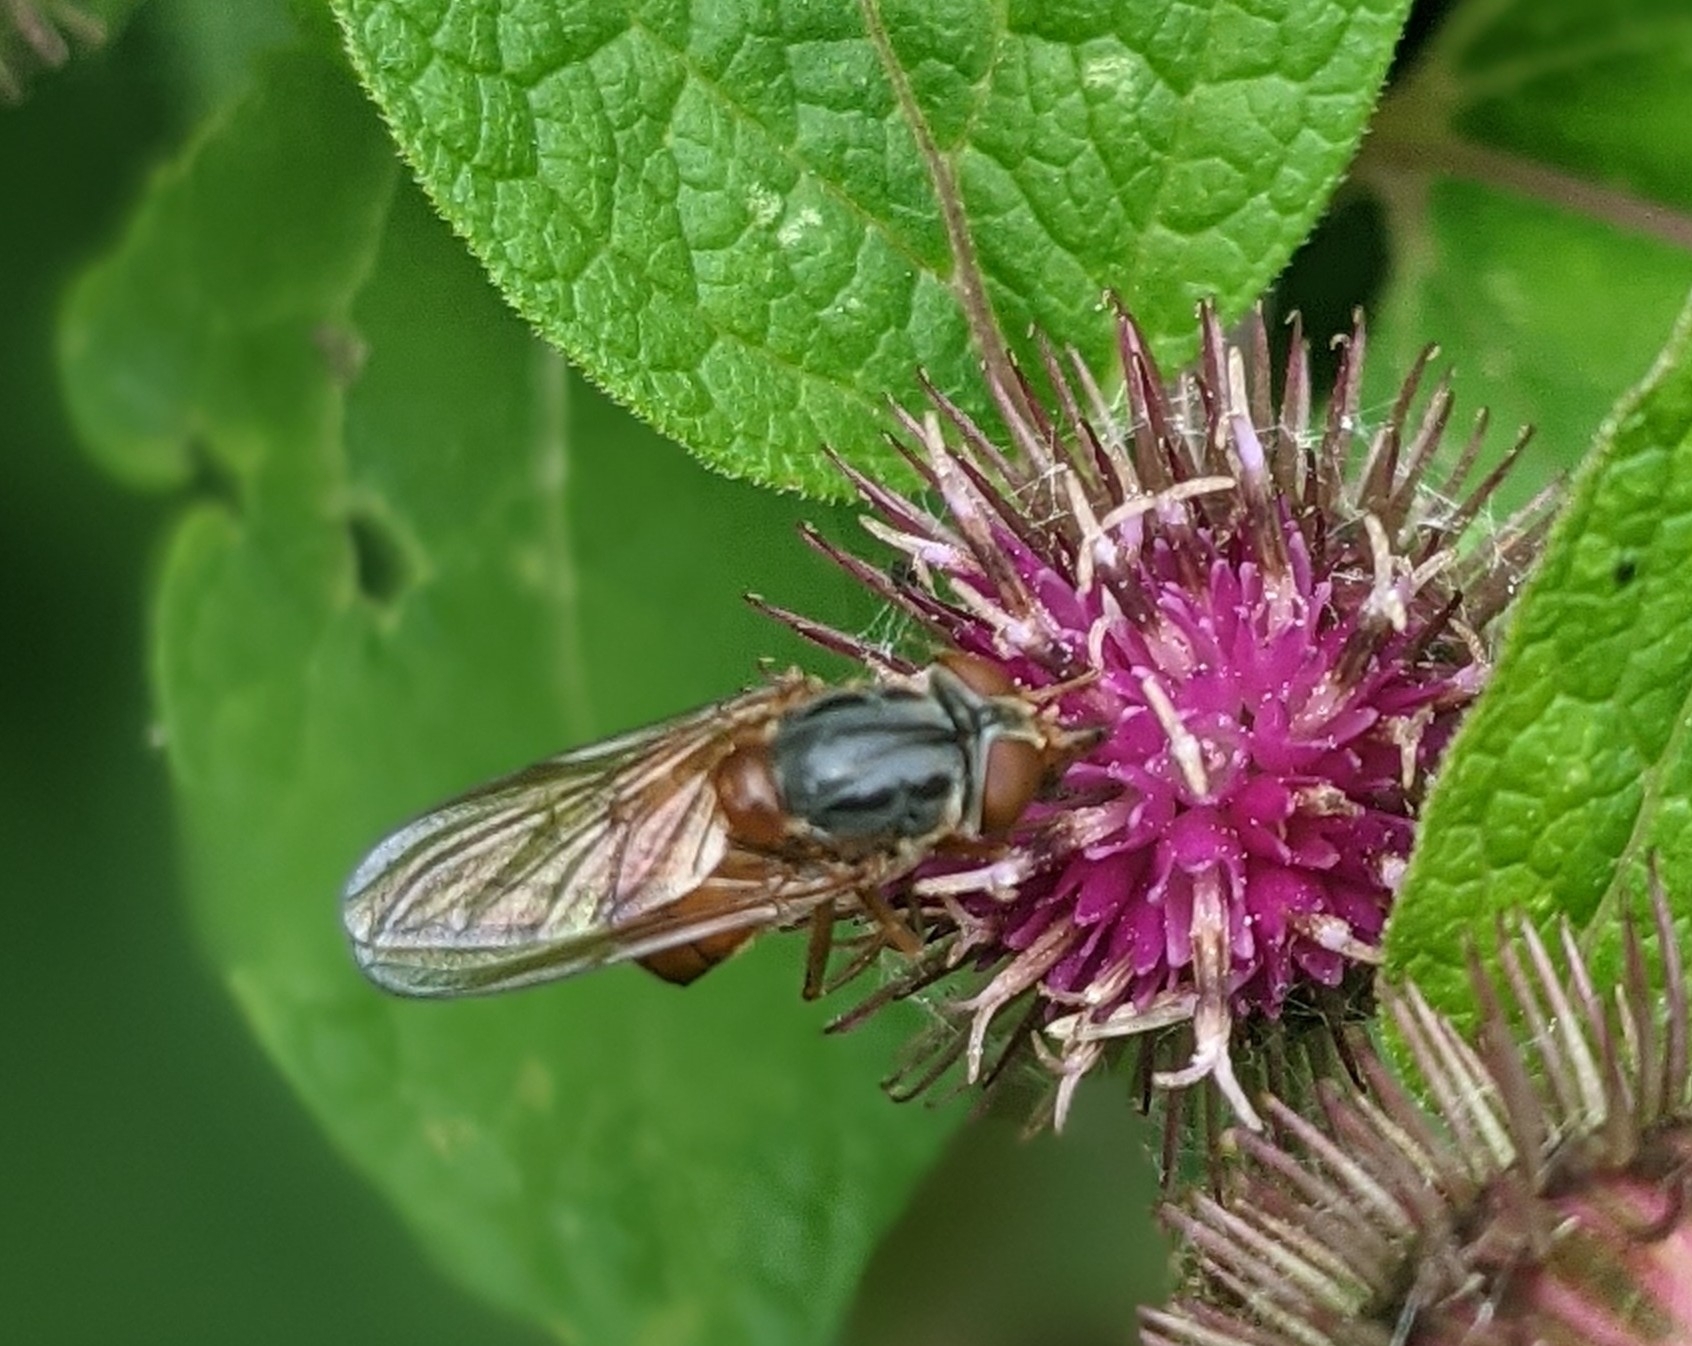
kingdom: Animalia
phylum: Arthropoda
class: Insecta
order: Diptera
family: Syrphidae
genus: Rhingia
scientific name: Rhingia campestris
